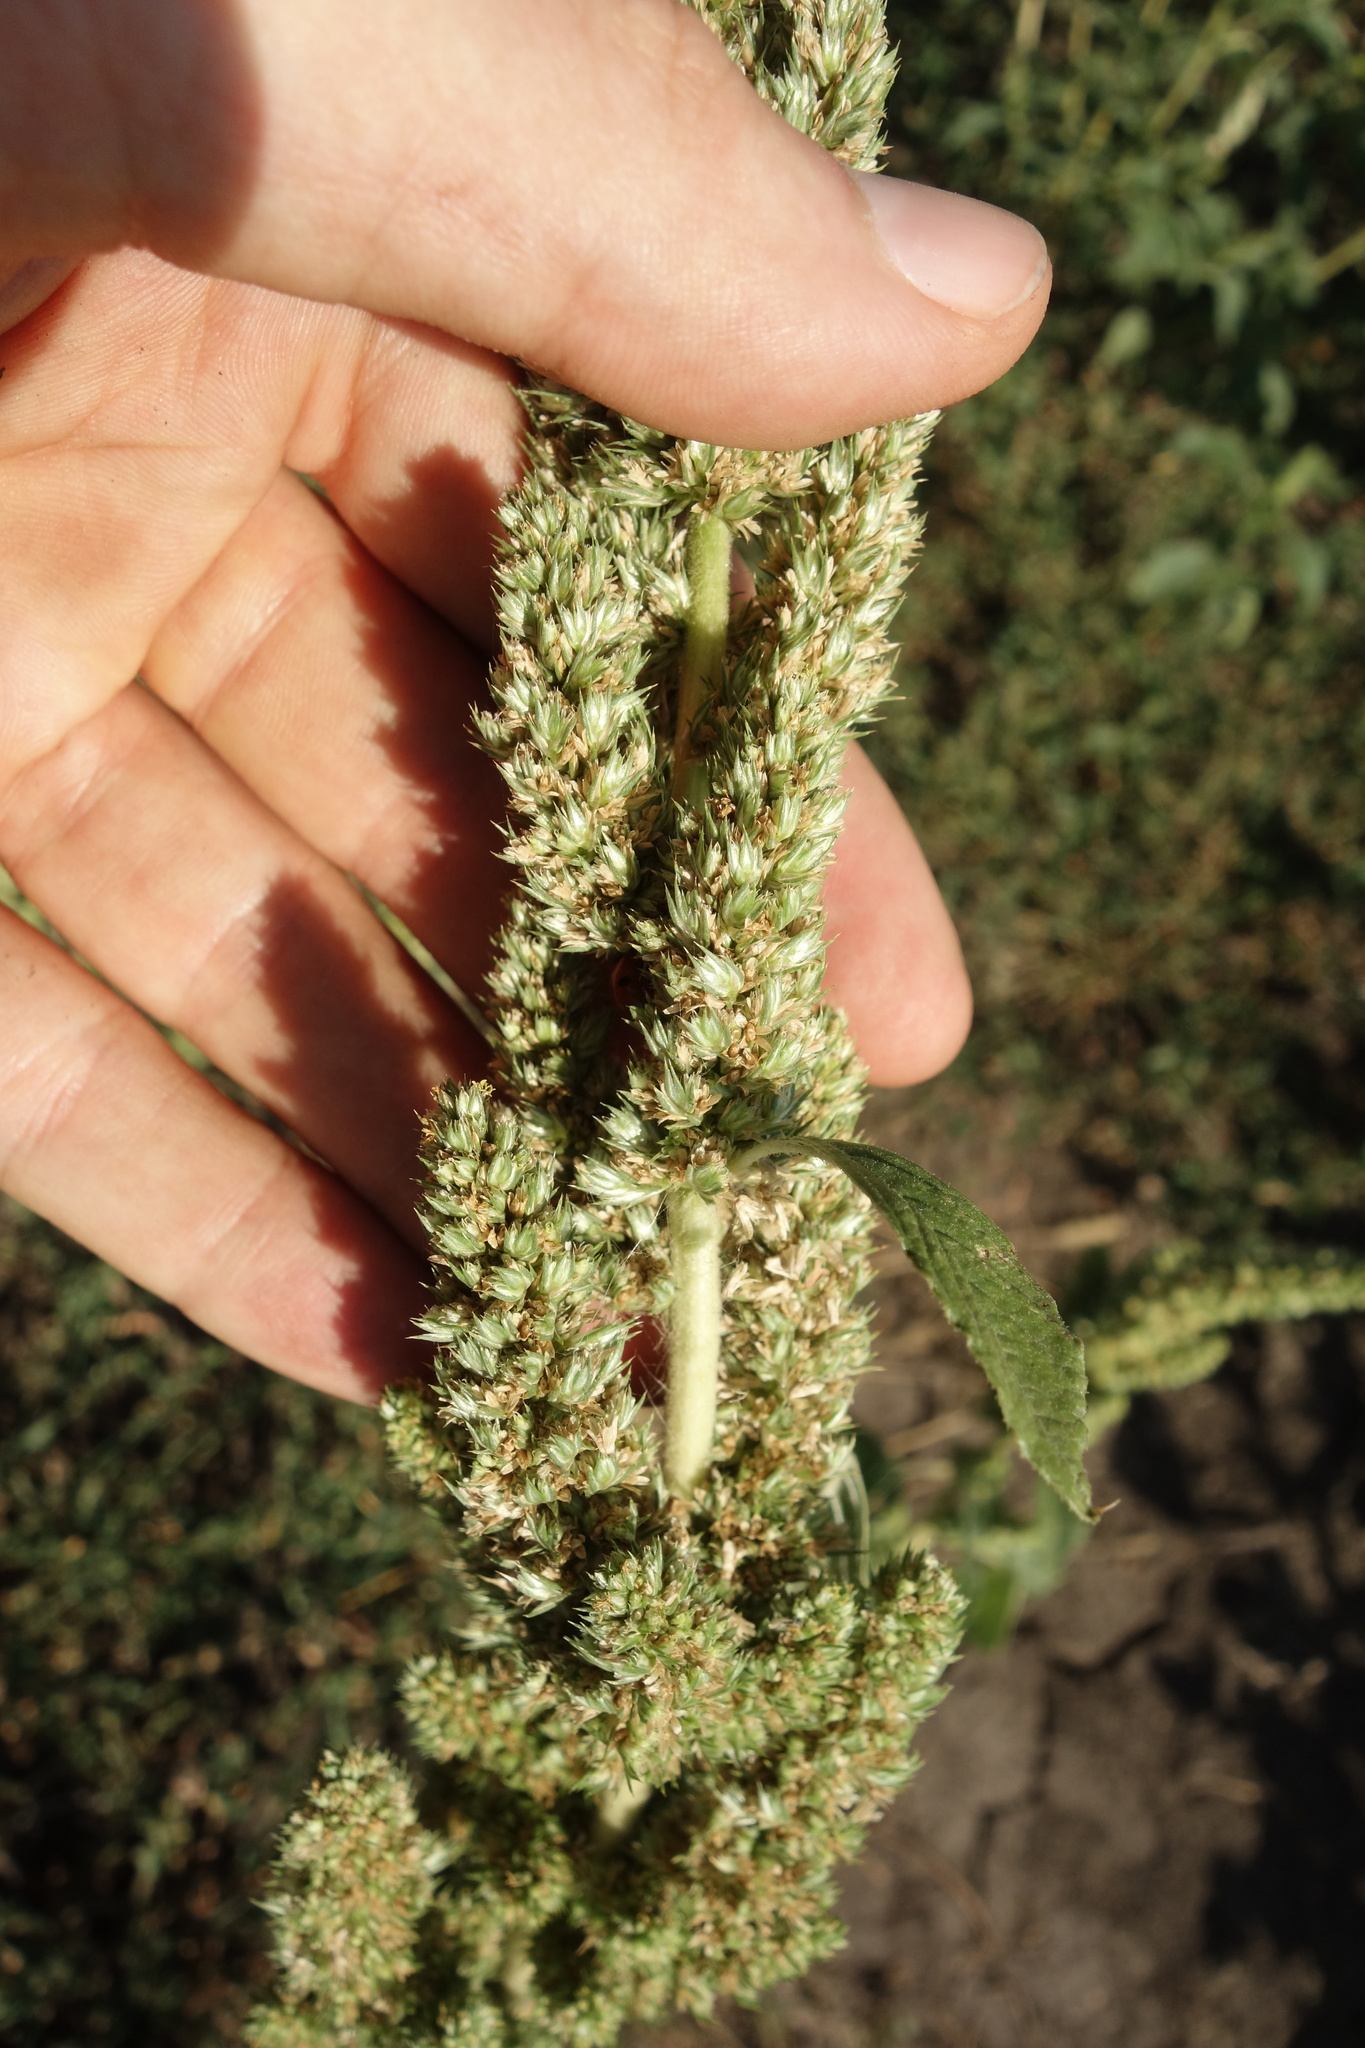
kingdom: Plantae
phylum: Tracheophyta
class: Magnoliopsida
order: Caryophyllales
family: Amaranthaceae
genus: Amaranthus
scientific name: Amaranthus retroflexus
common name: Redroot amaranth
